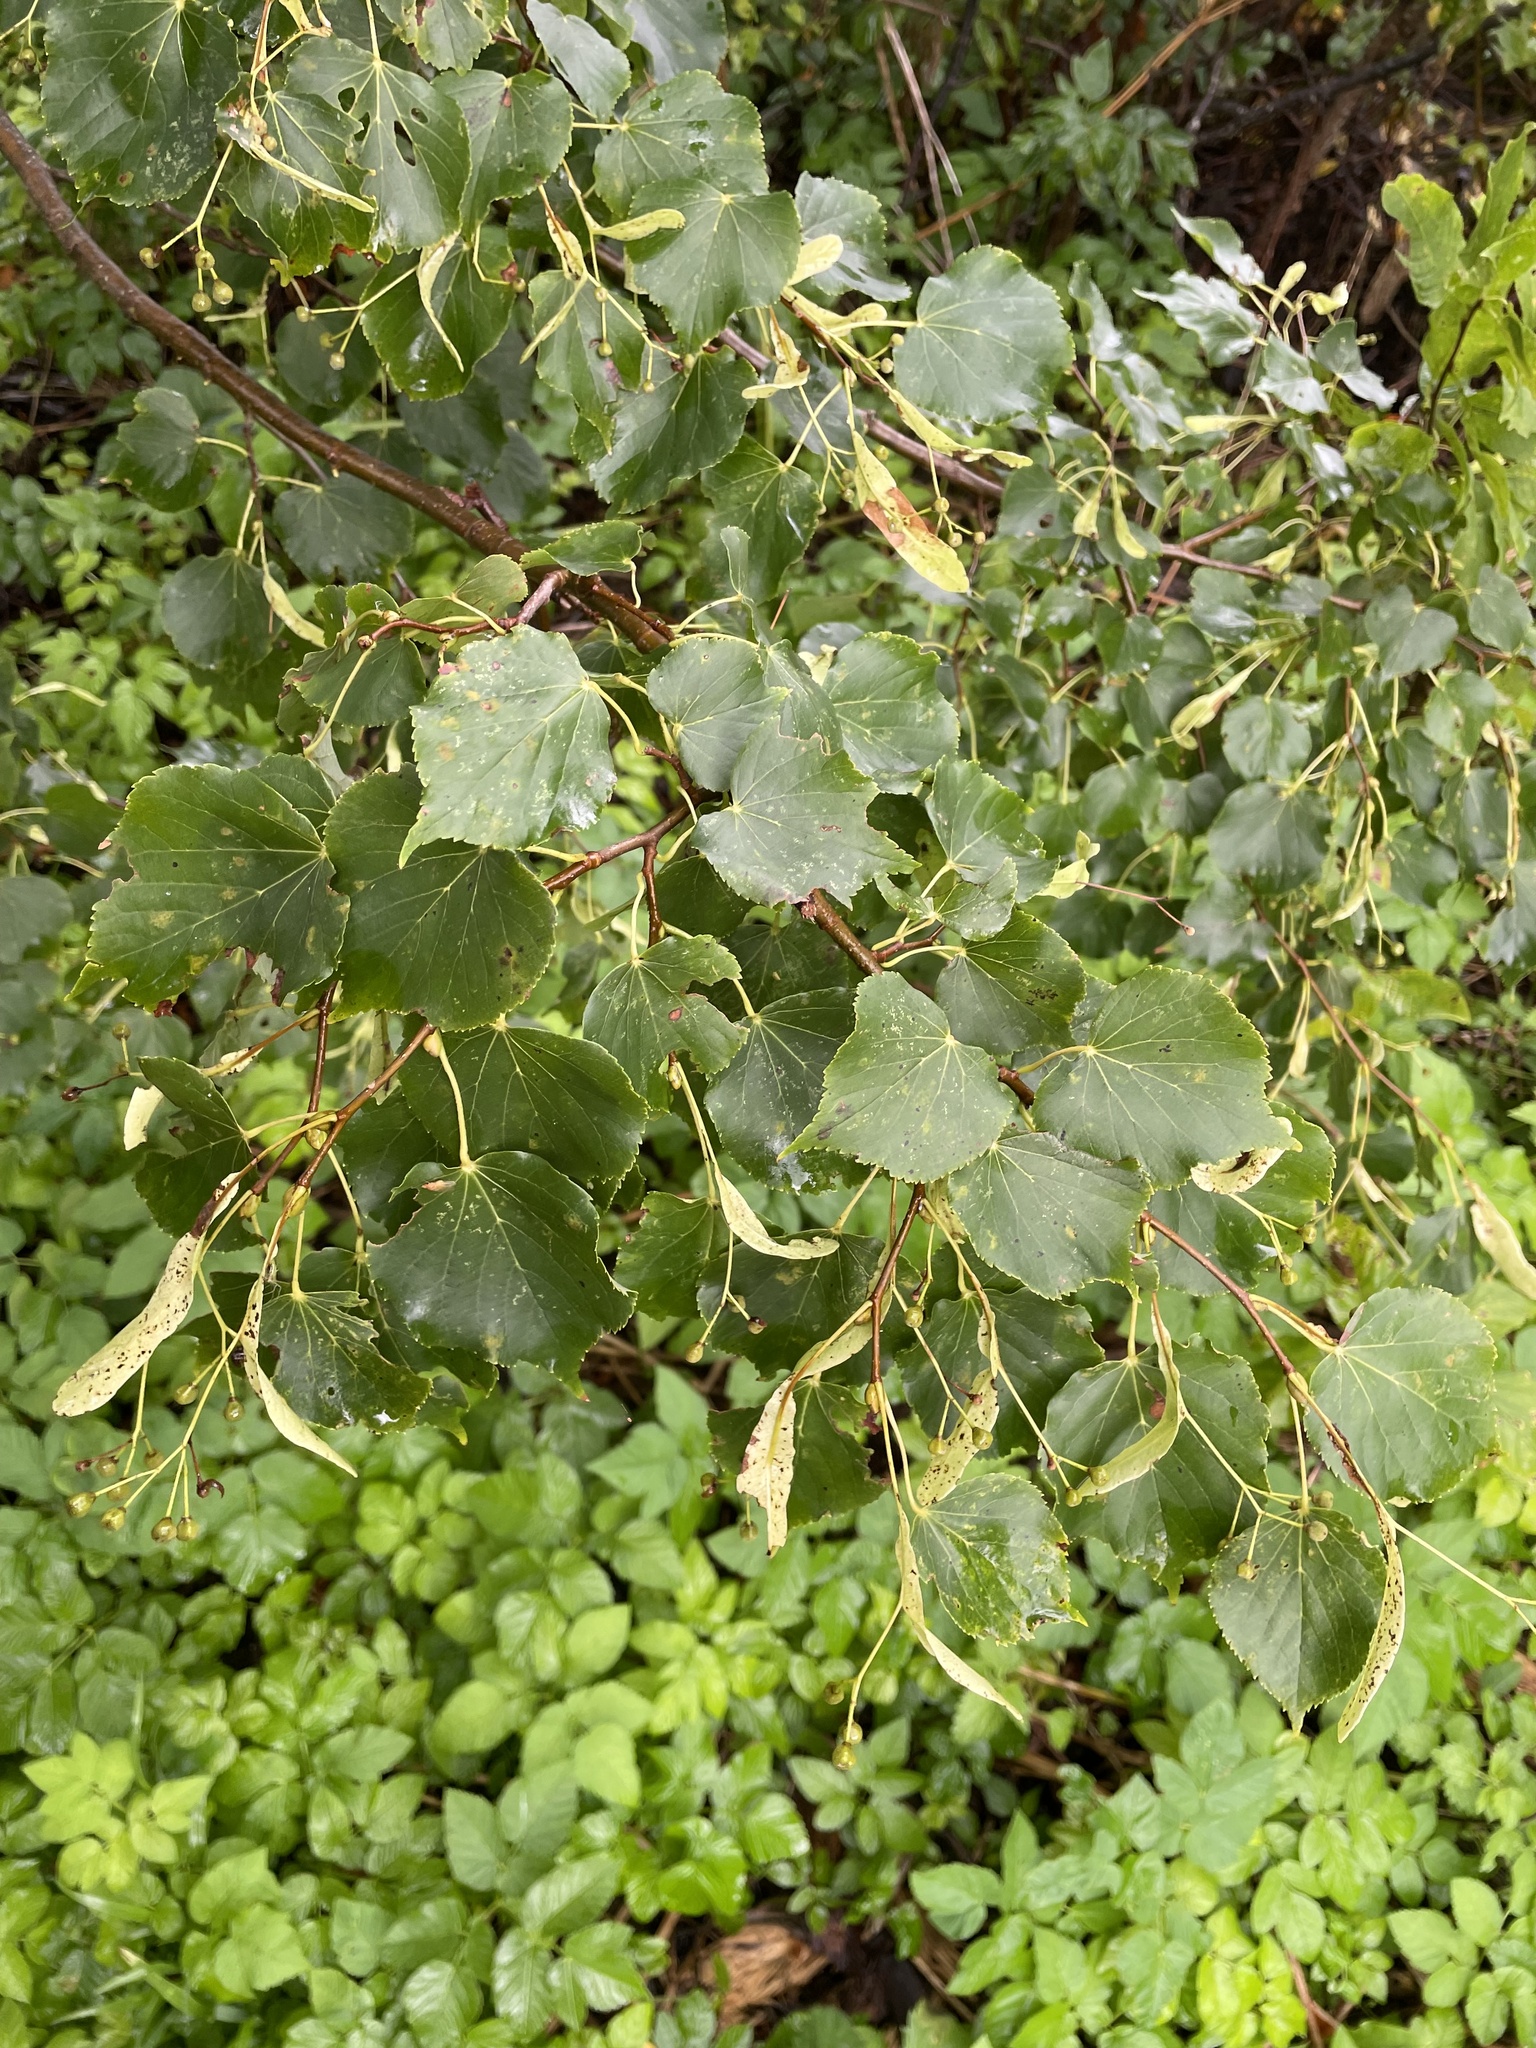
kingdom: Plantae
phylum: Tracheophyta
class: Magnoliopsida
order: Malvales
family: Malvaceae
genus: Tilia
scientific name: Tilia cordata
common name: Small-leaved lime
